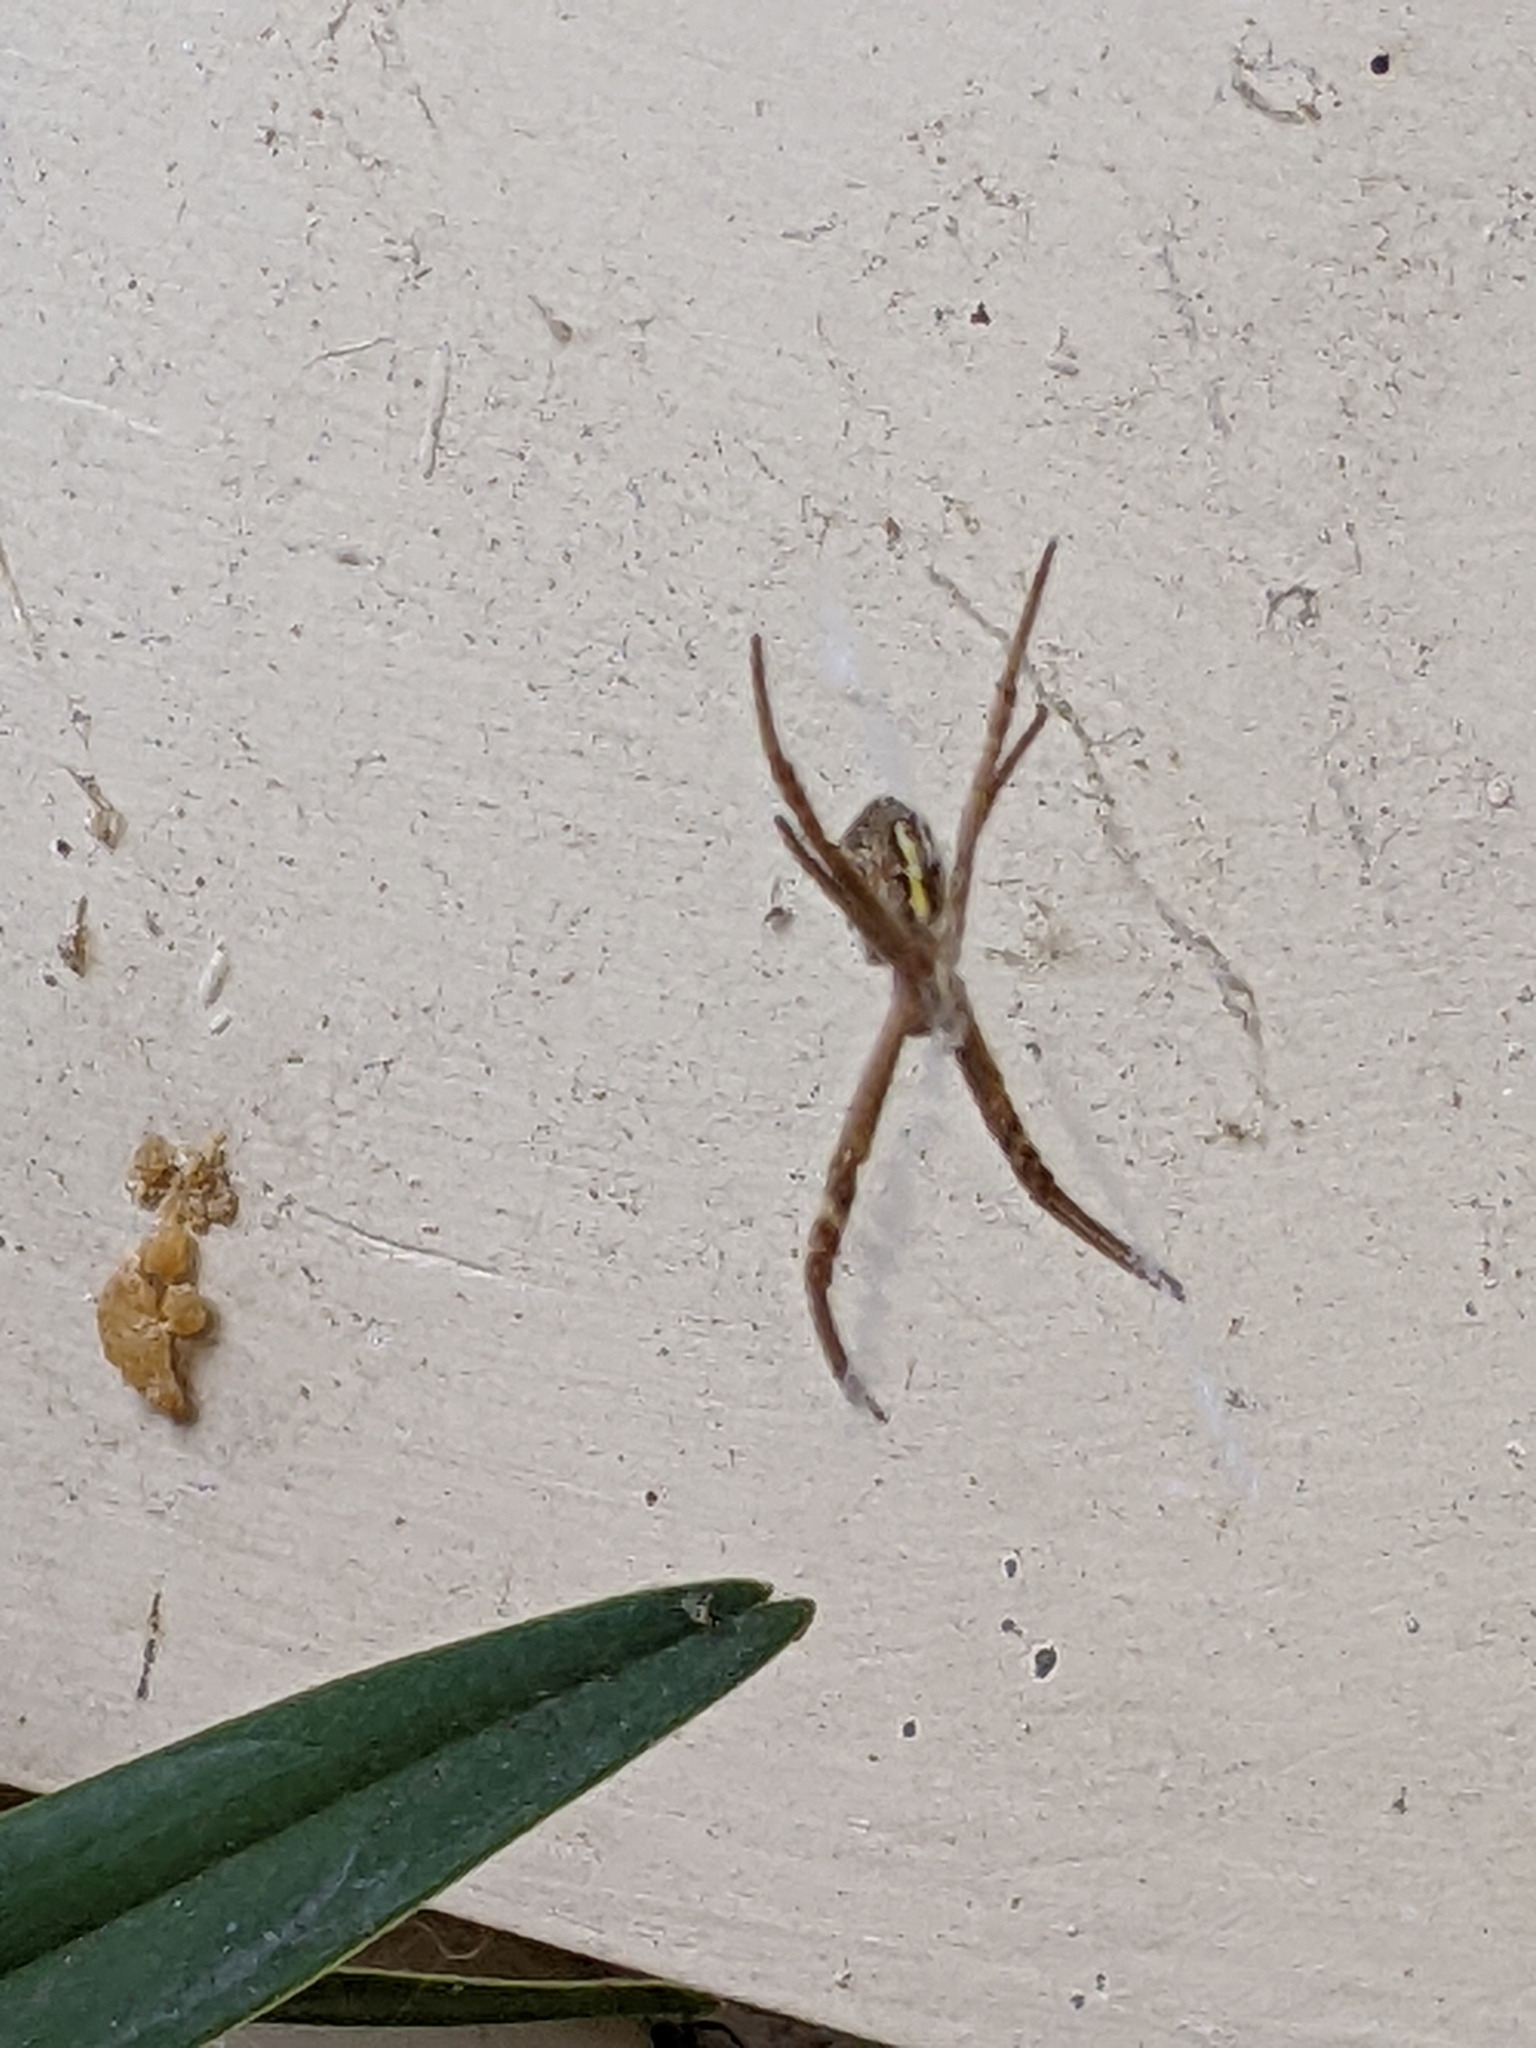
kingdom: Animalia
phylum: Arthropoda
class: Arachnida
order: Araneae
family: Araneidae
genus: Argiope
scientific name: Argiope keyserlingi
